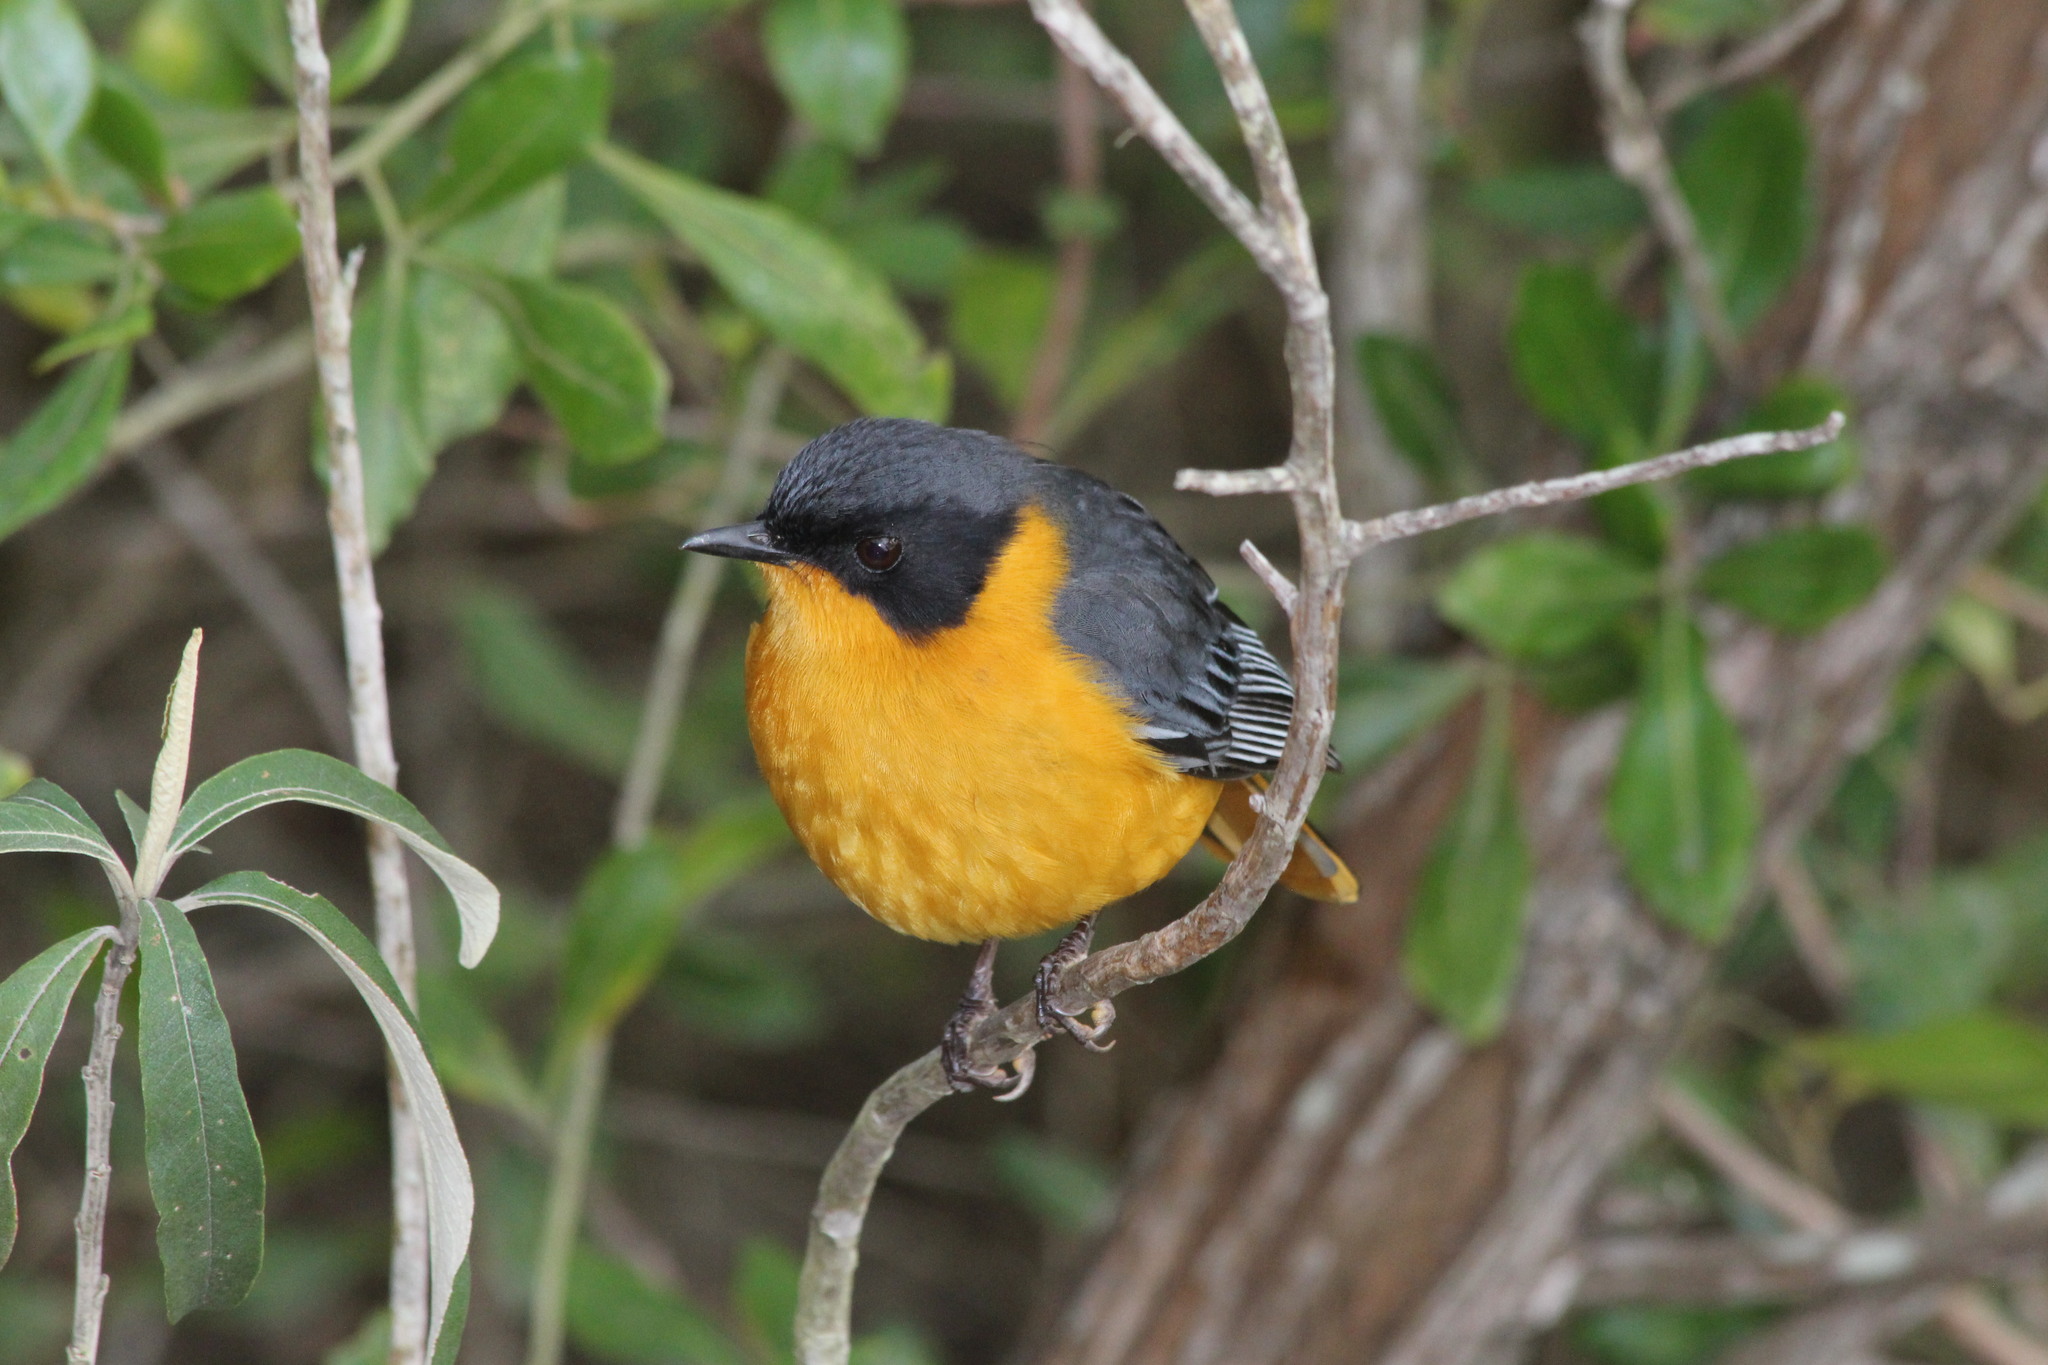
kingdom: Animalia
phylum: Chordata
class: Aves
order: Passeriformes
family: Muscicapidae
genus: Cossypha
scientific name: Cossypha dichroa
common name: Chorister robin-chat
